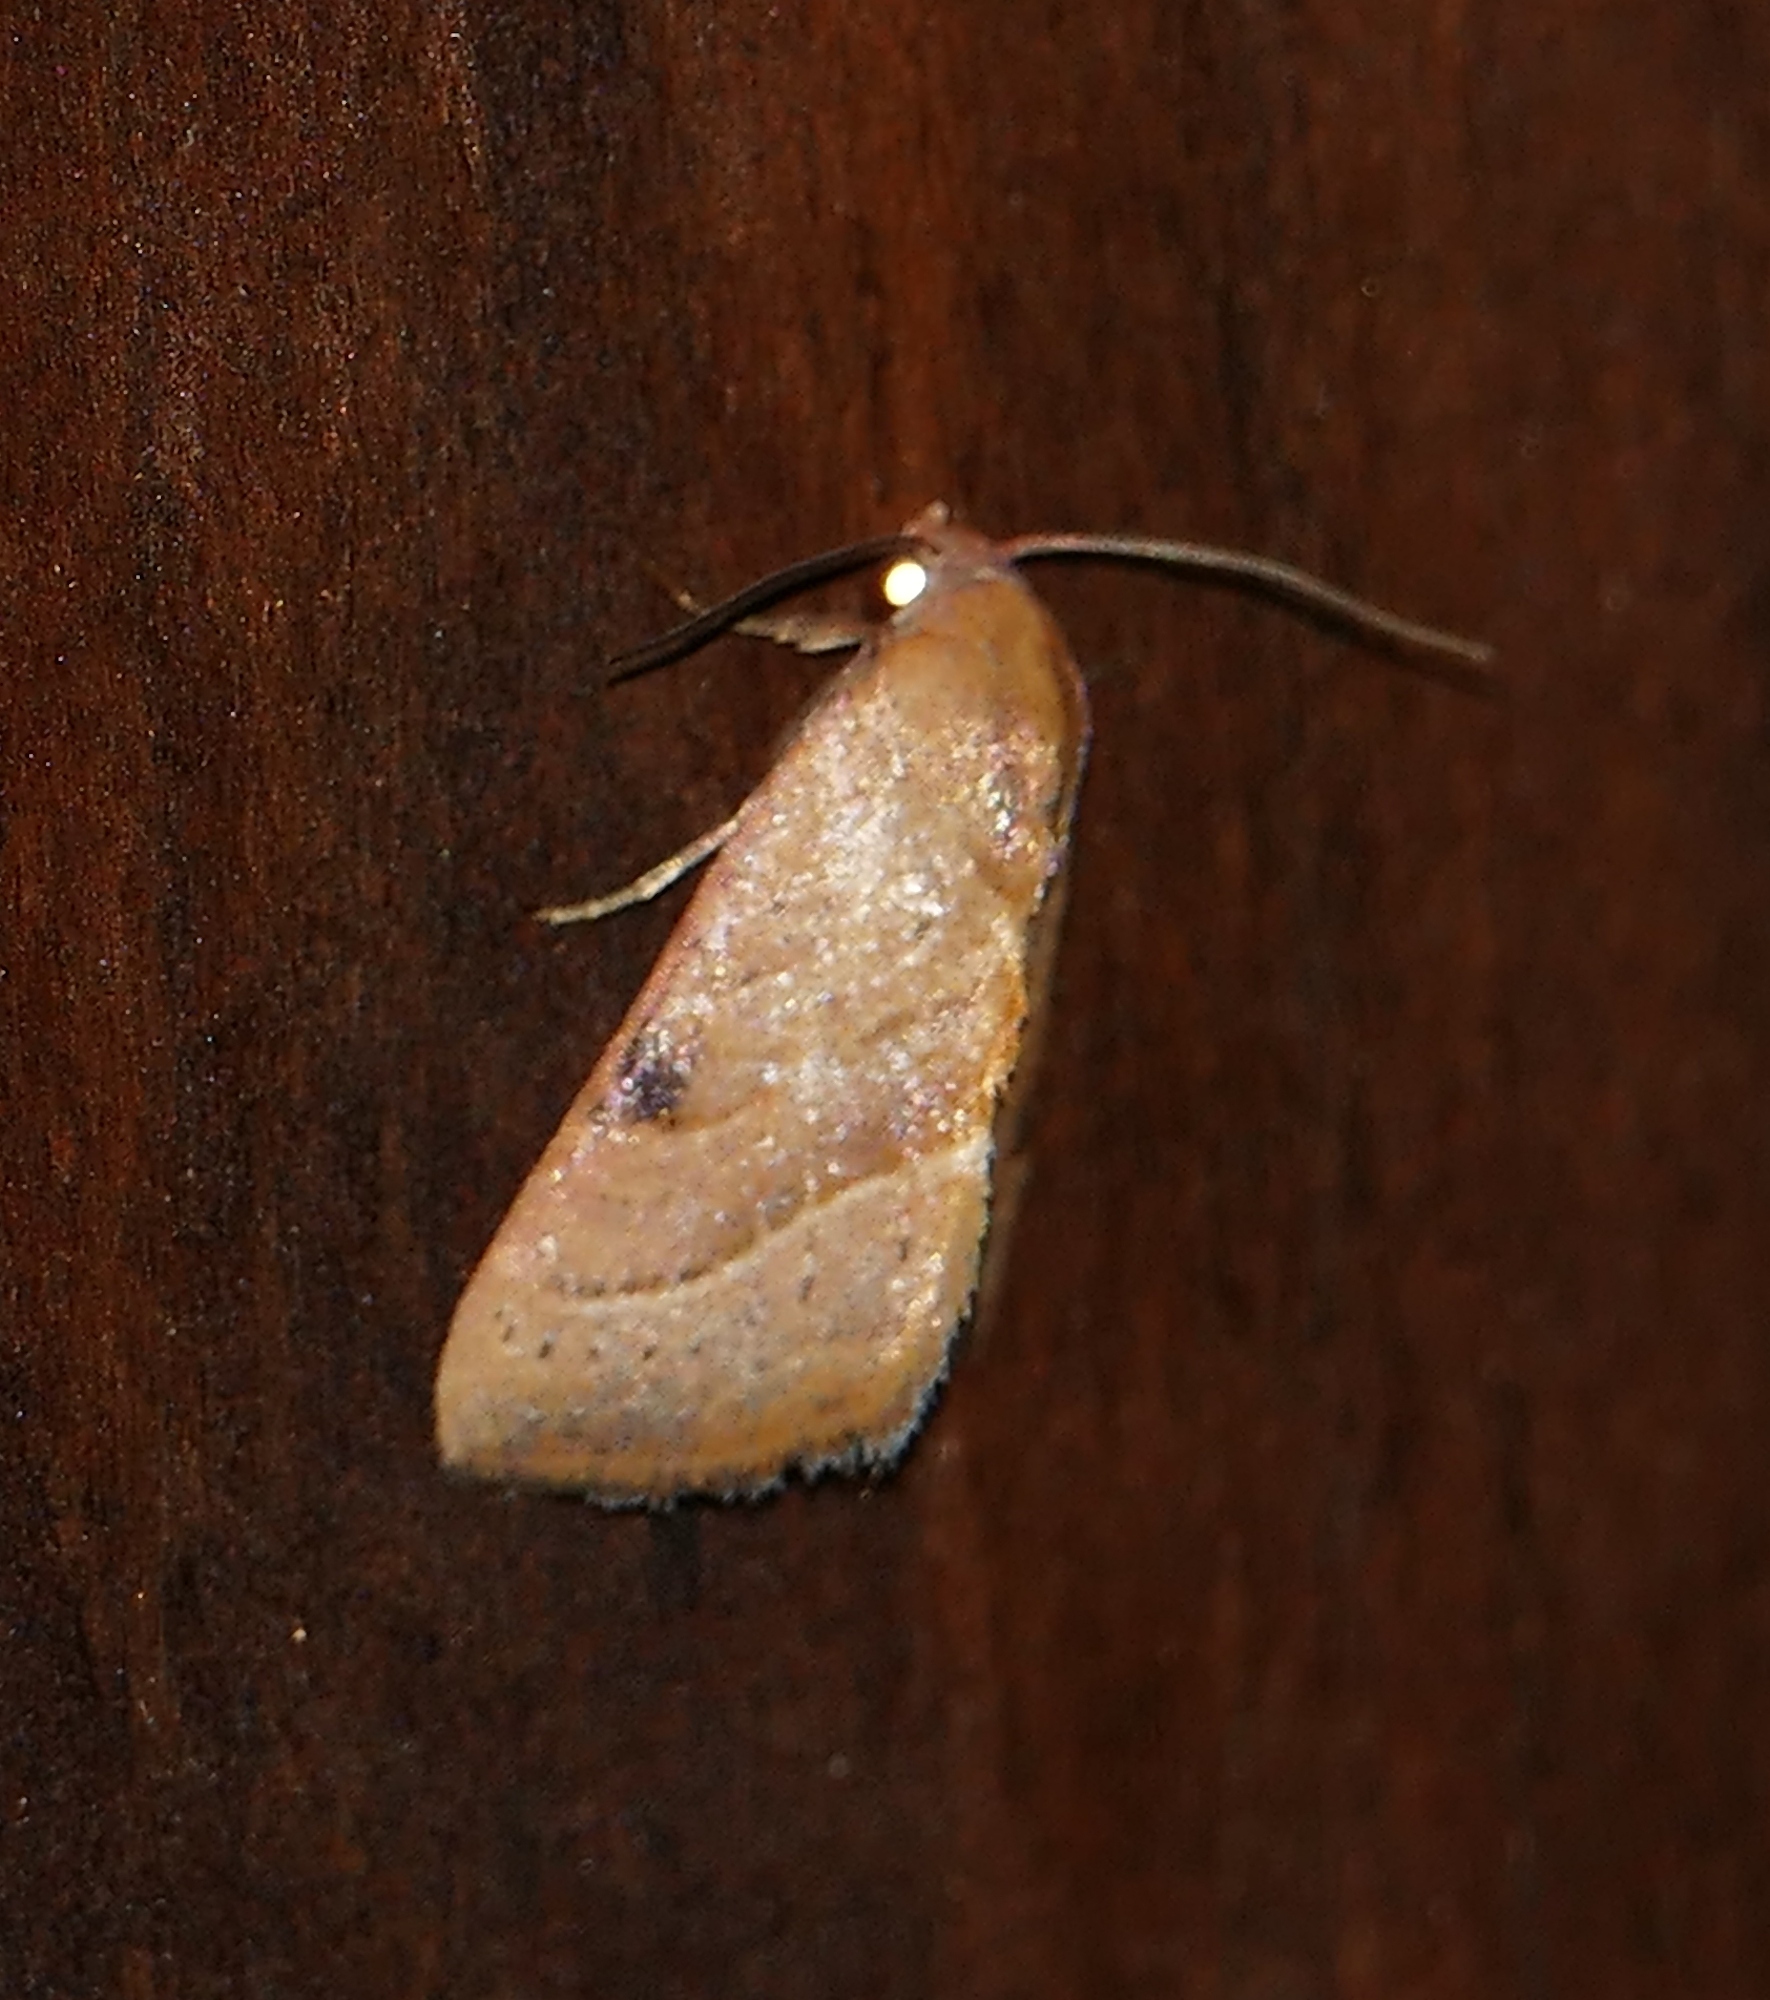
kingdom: Animalia
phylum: Arthropoda
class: Insecta
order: Lepidoptera
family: Noctuidae
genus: Galgula
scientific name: Galgula partita
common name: Wedgeling
